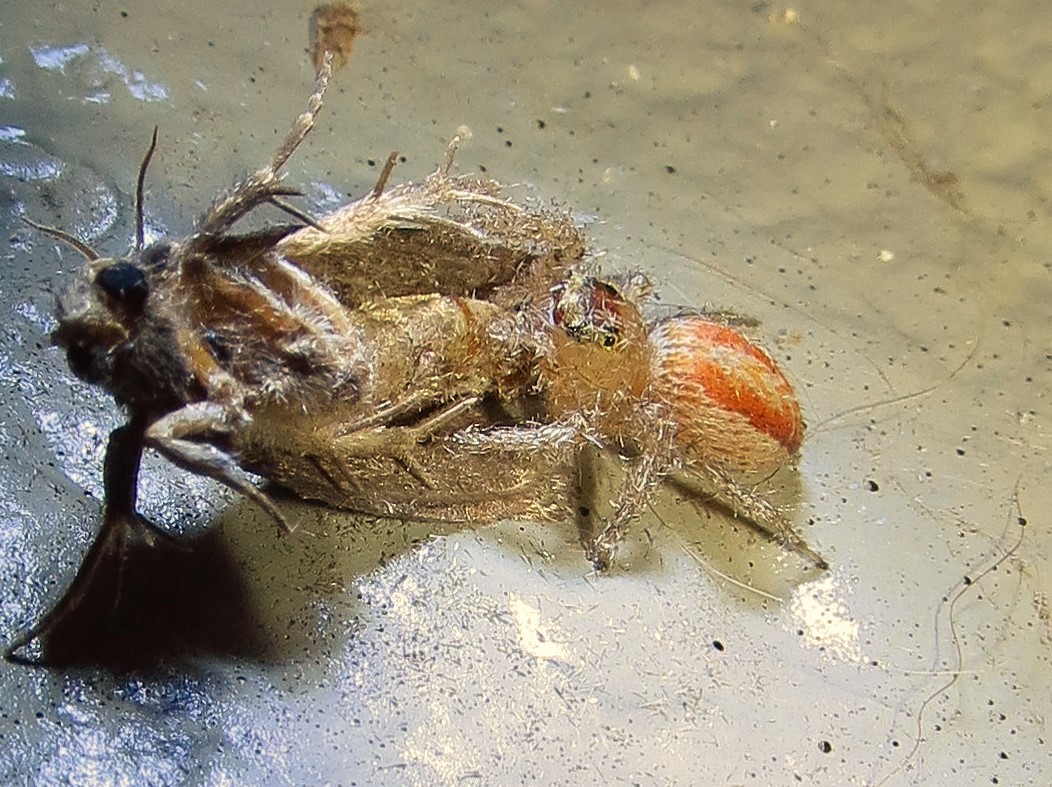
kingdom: Animalia
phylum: Arthropoda
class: Arachnida
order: Araneae
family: Salticidae
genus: Maevia
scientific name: Maevia inclemens
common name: Dimorphic jumper
